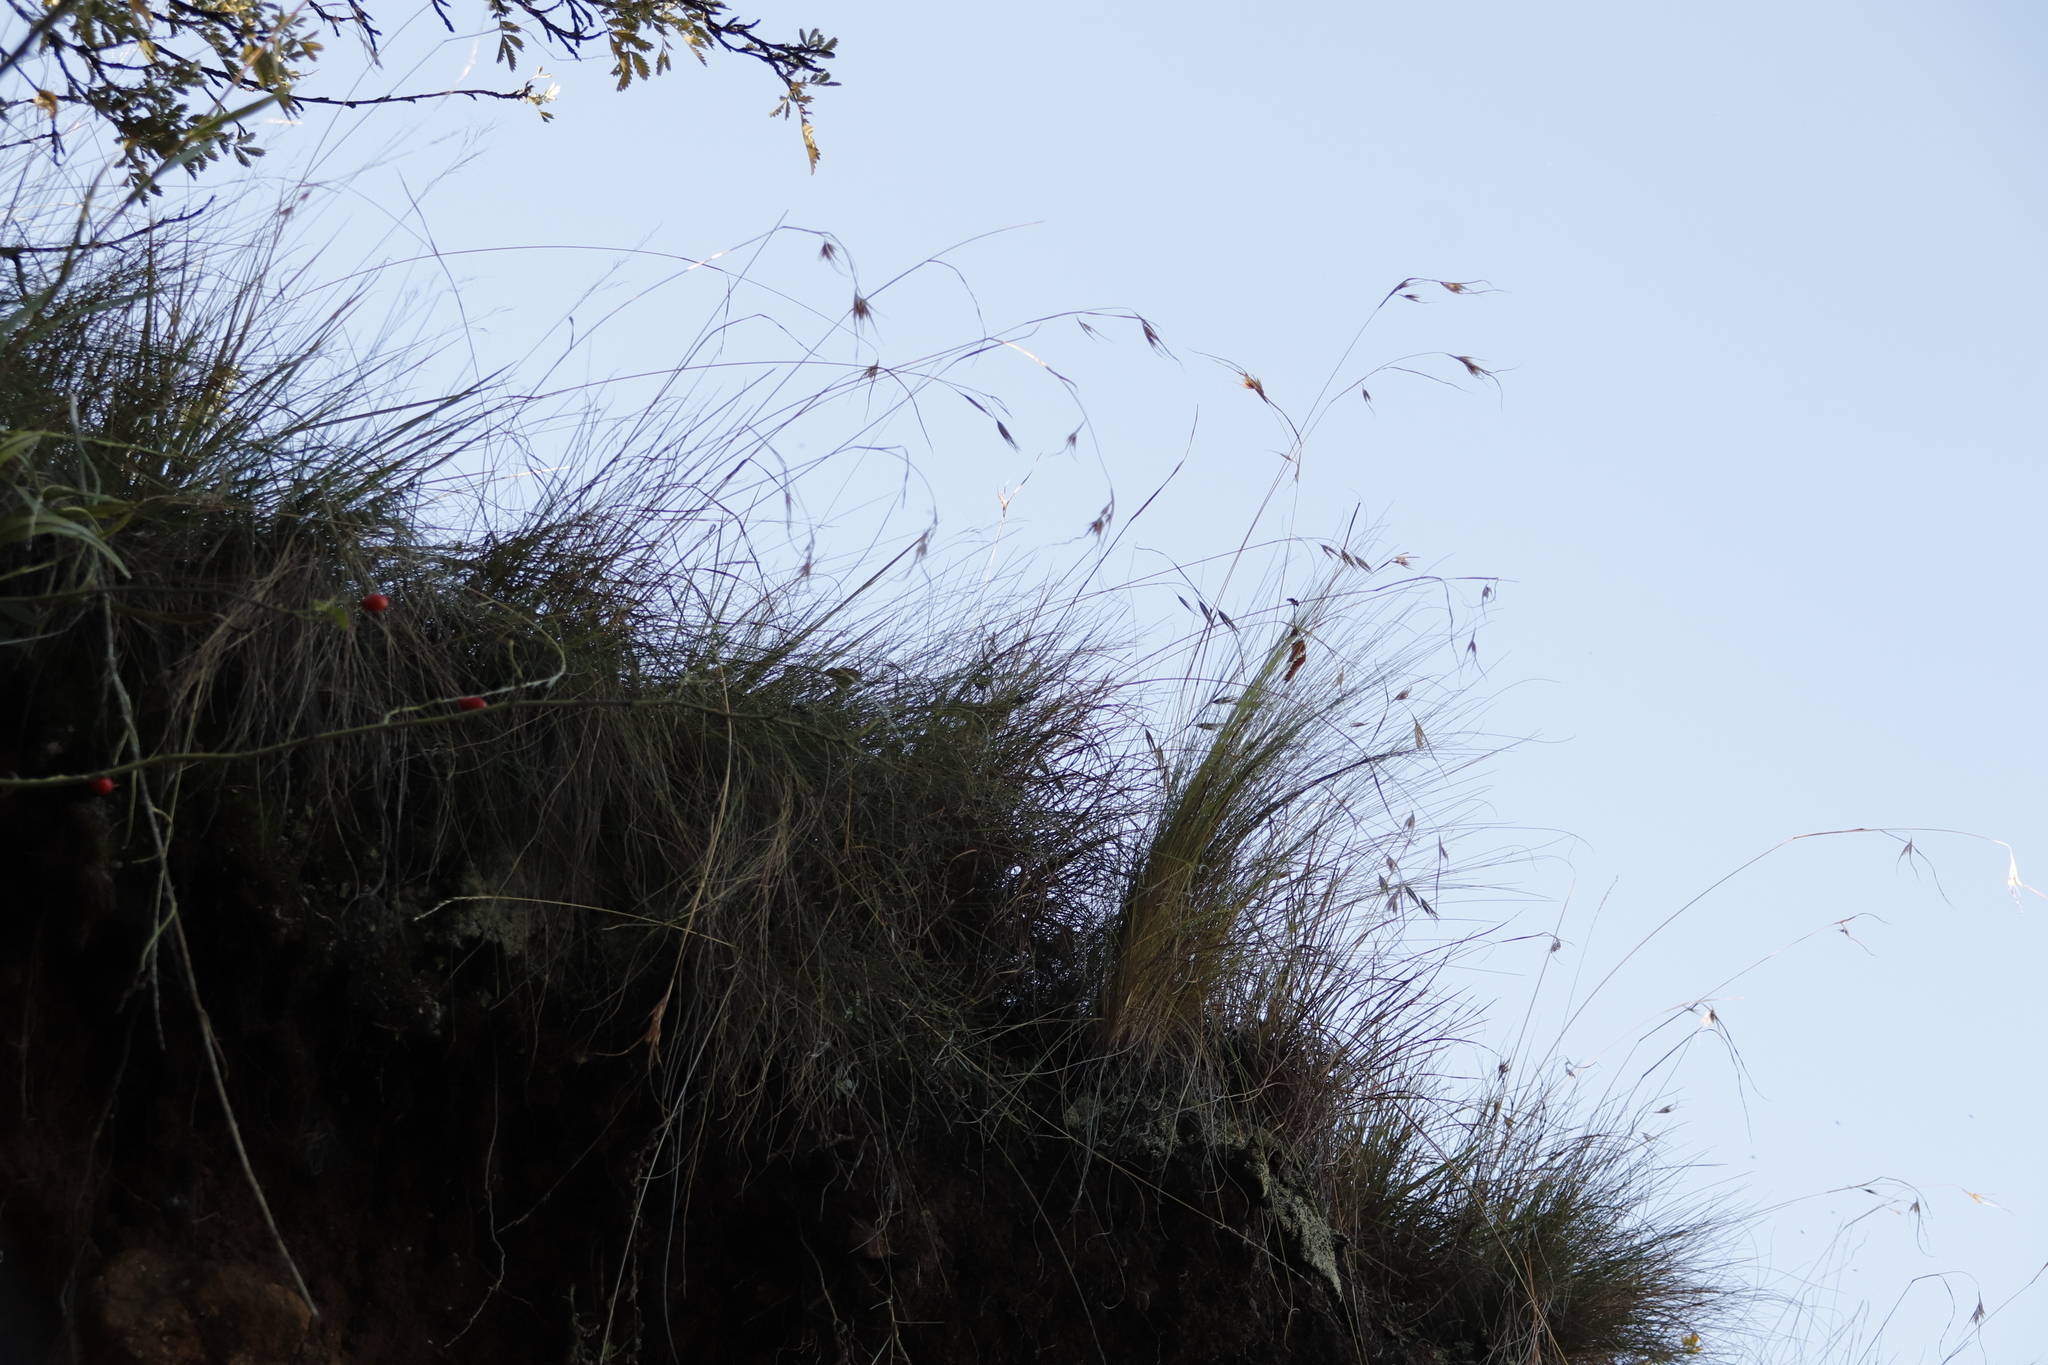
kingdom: Plantae
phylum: Tracheophyta
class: Liliopsida
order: Poales
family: Poaceae
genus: Themeda
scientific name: Themeda triandra
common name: Kangaroo grass
